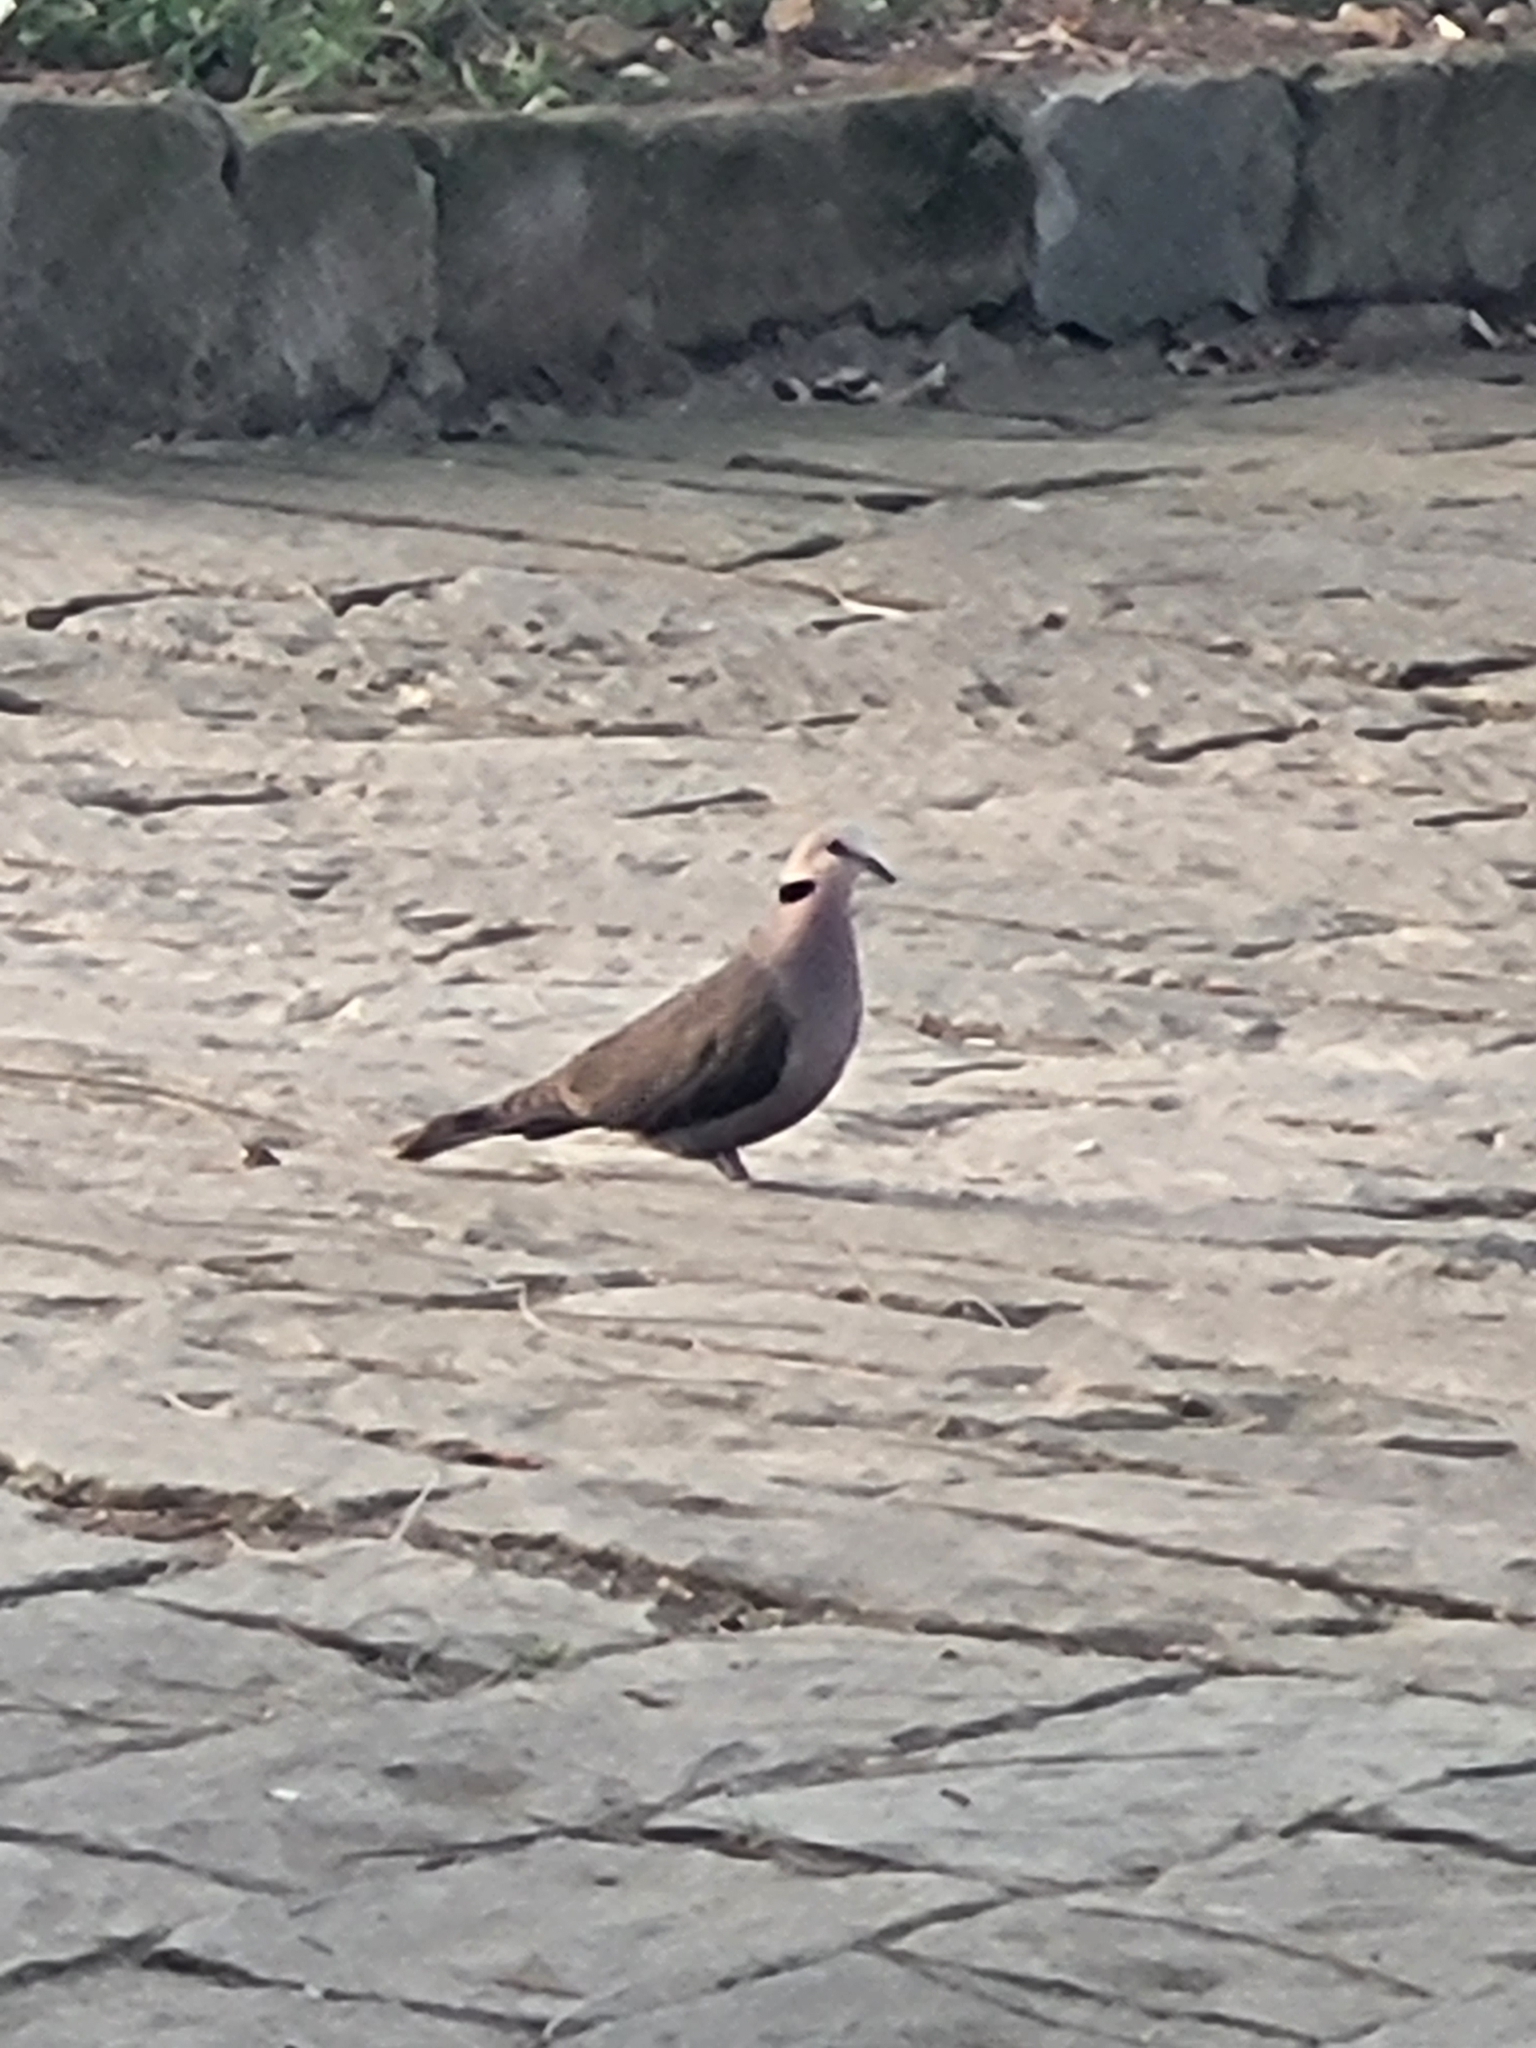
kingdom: Animalia
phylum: Chordata
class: Aves
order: Columbiformes
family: Columbidae
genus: Streptopelia
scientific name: Streptopelia semitorquata
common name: Red-eyed dove
